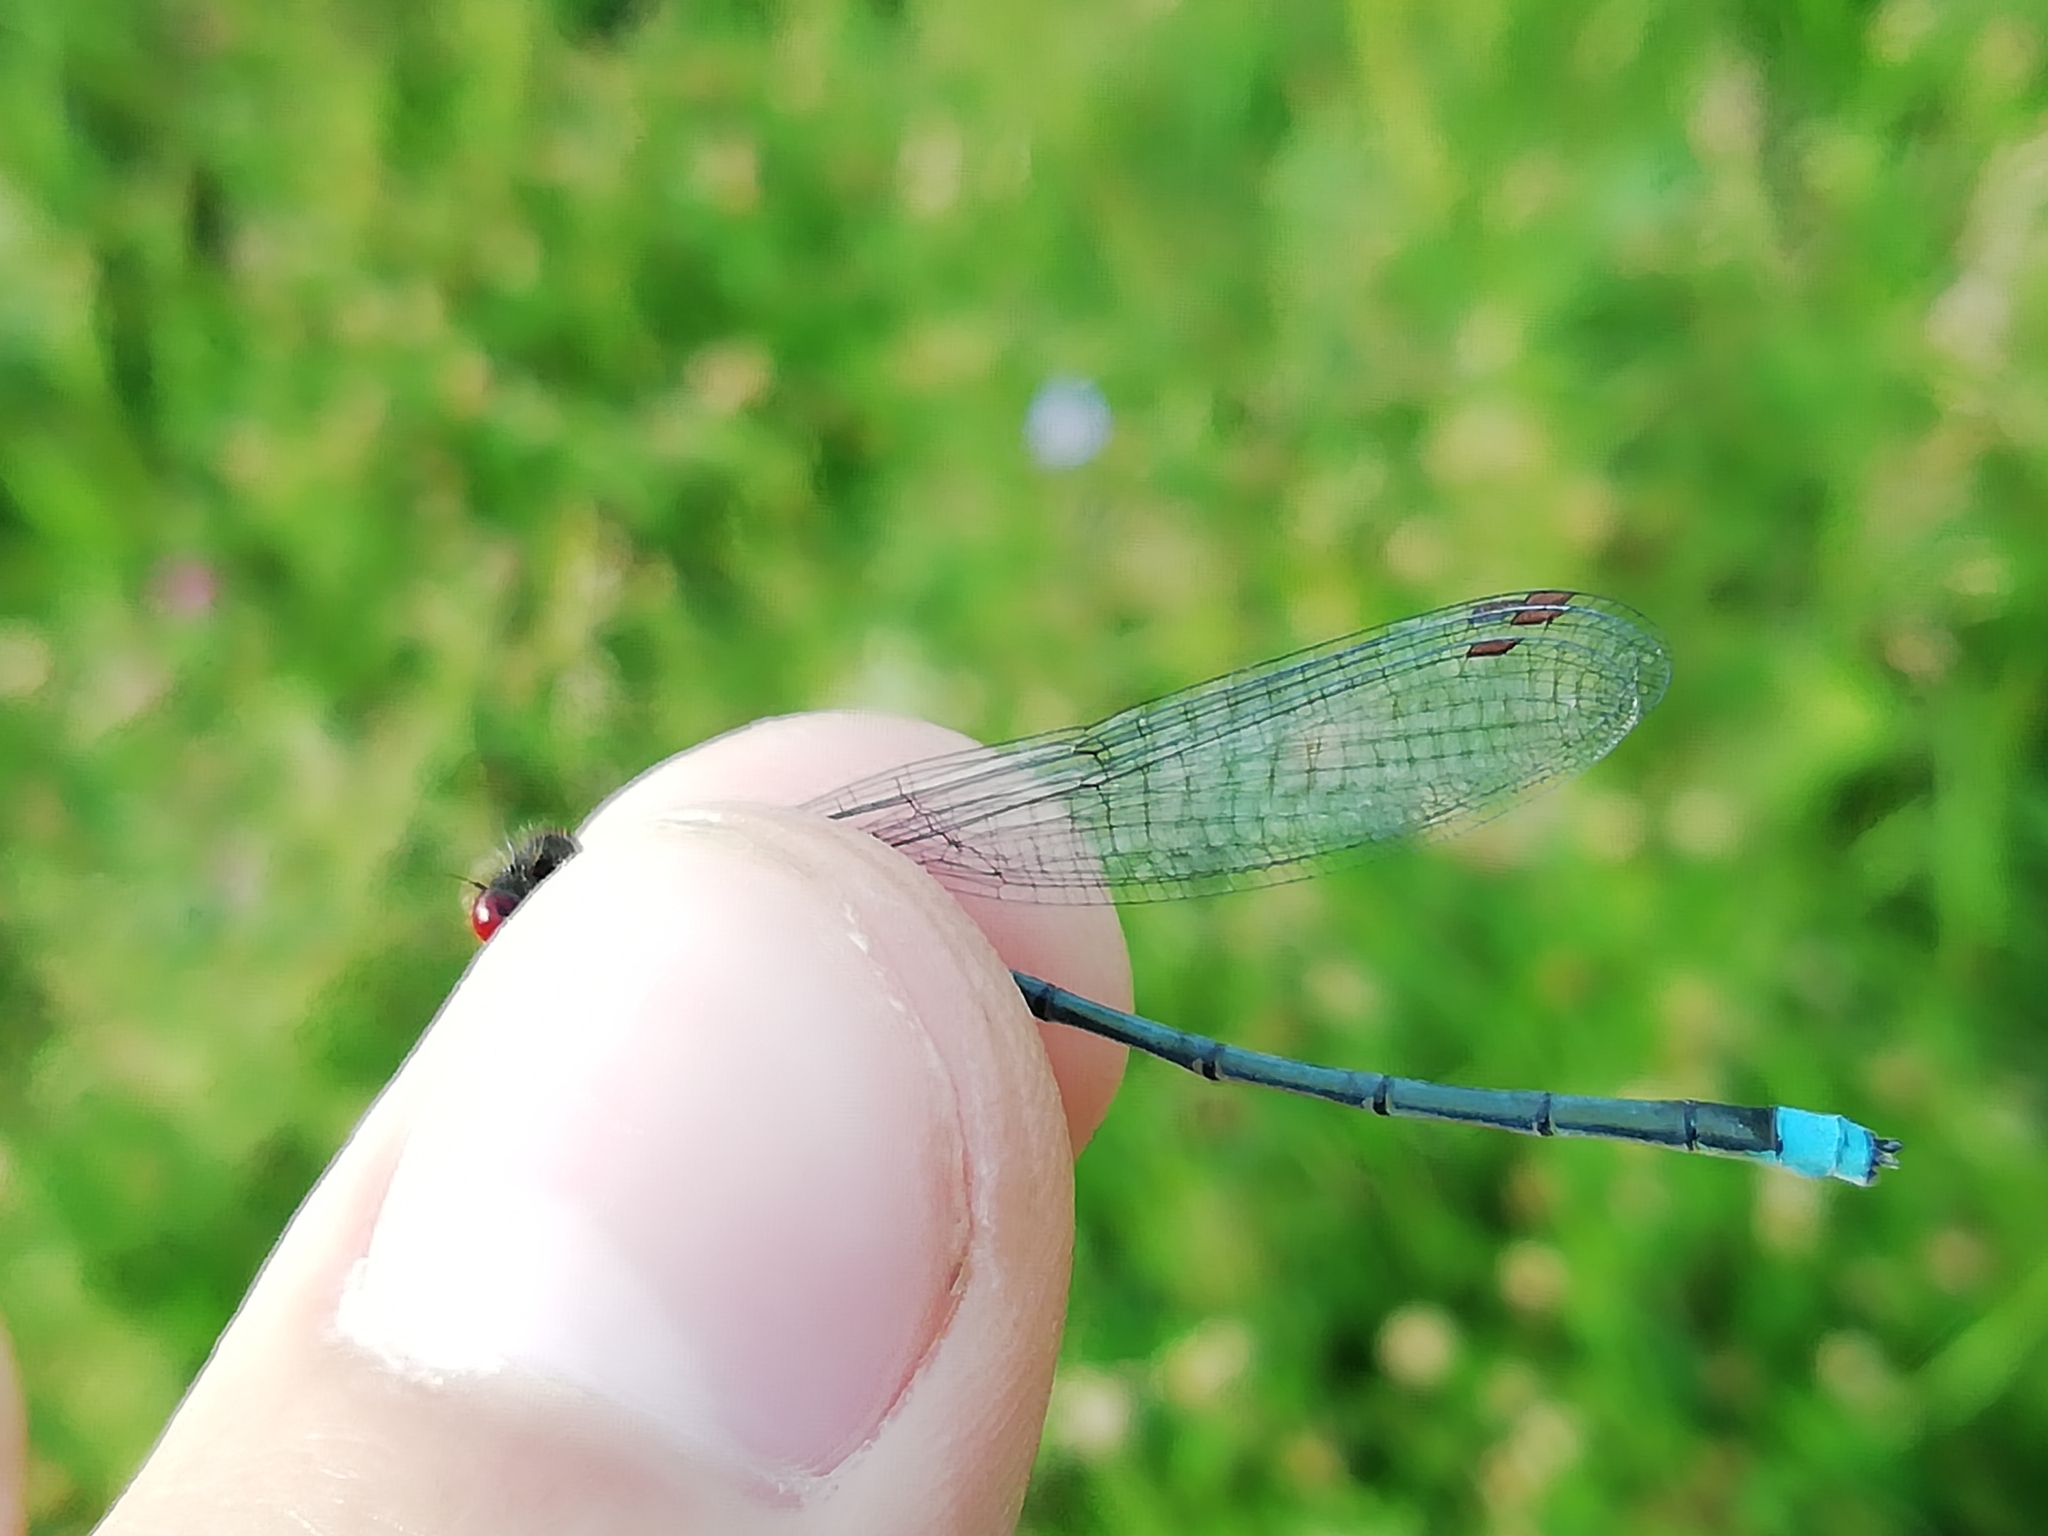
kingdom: Animalia
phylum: Arthropoda
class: Insecta
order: Odonata
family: Coenagrionidae
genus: Erythromma
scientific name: Erythromma najas
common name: Red-eyed damselfly
